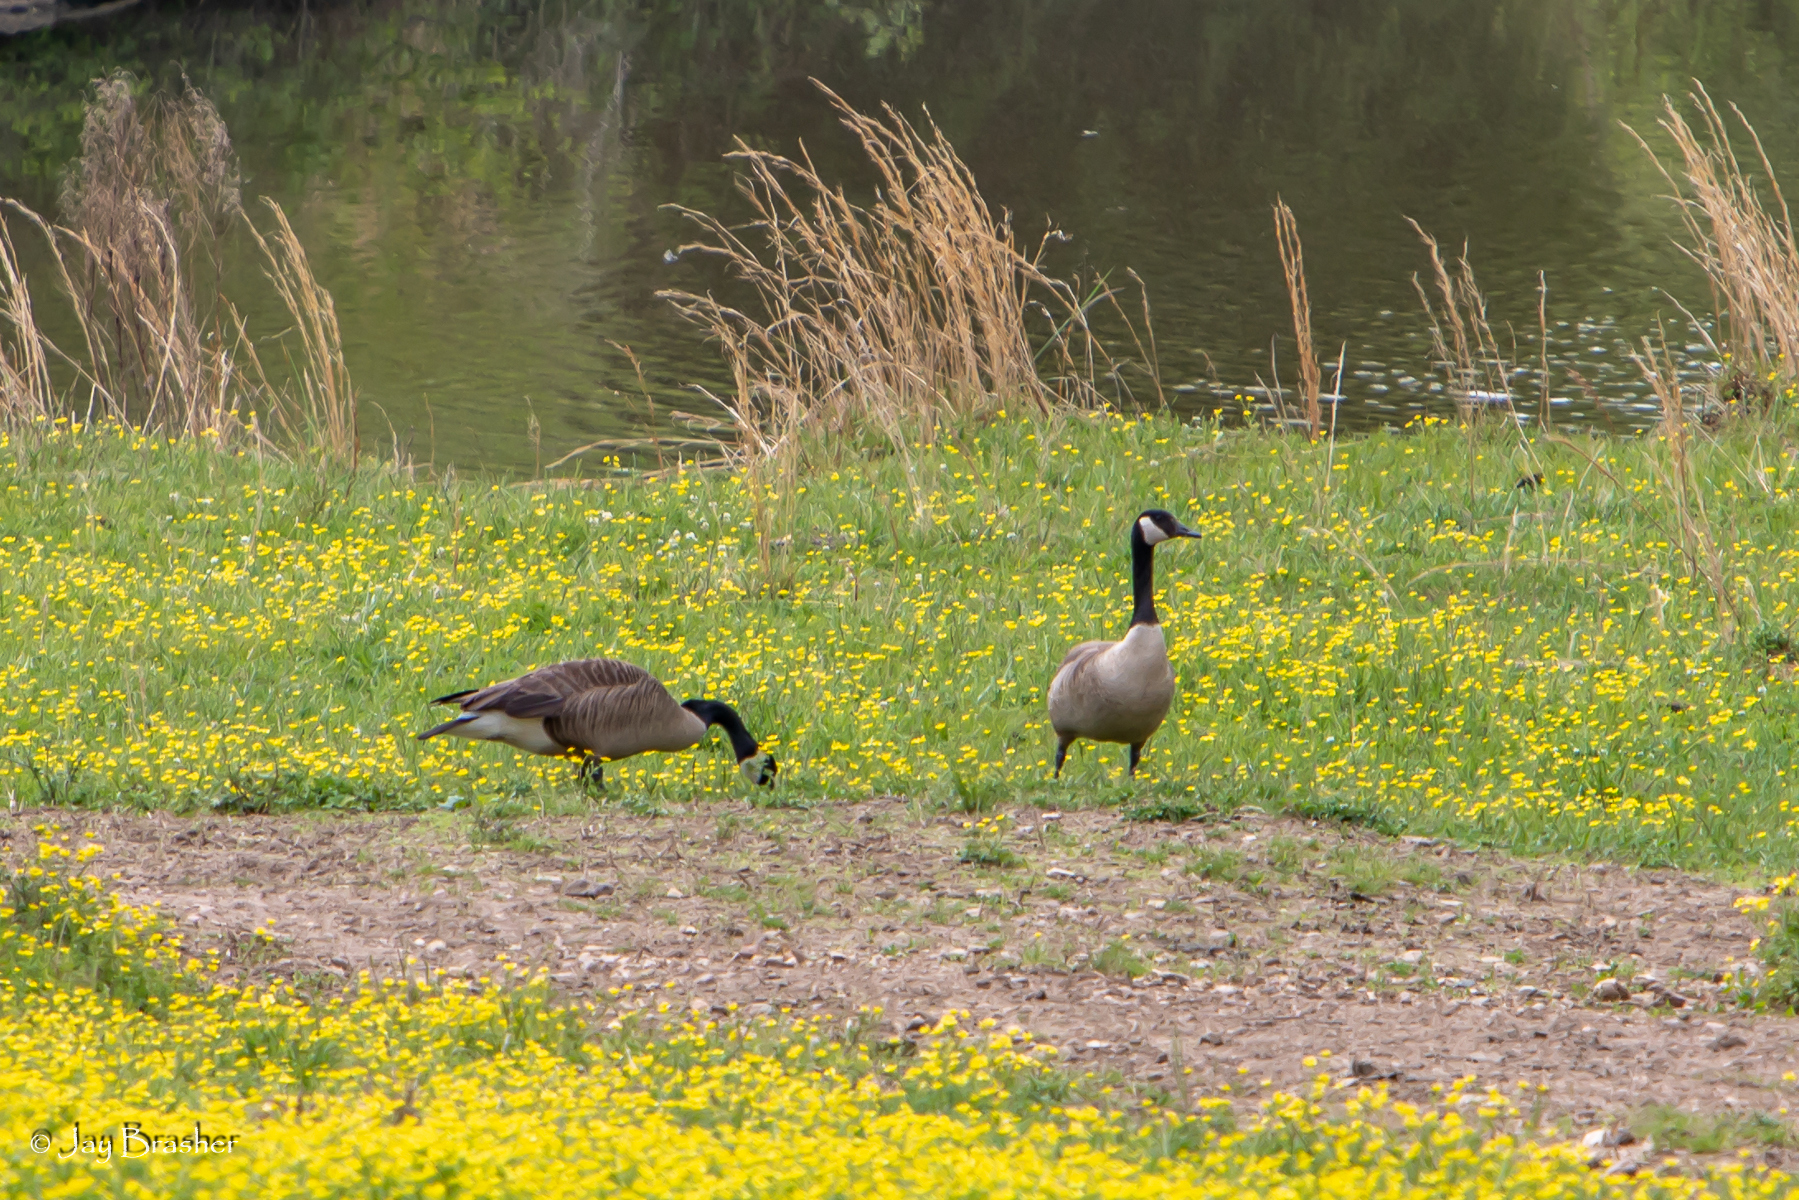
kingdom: Animalia
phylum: Chordata
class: Aves
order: Anseriformes
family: Anatidae
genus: Branta
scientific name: Branta canadensis
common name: Canada goose
